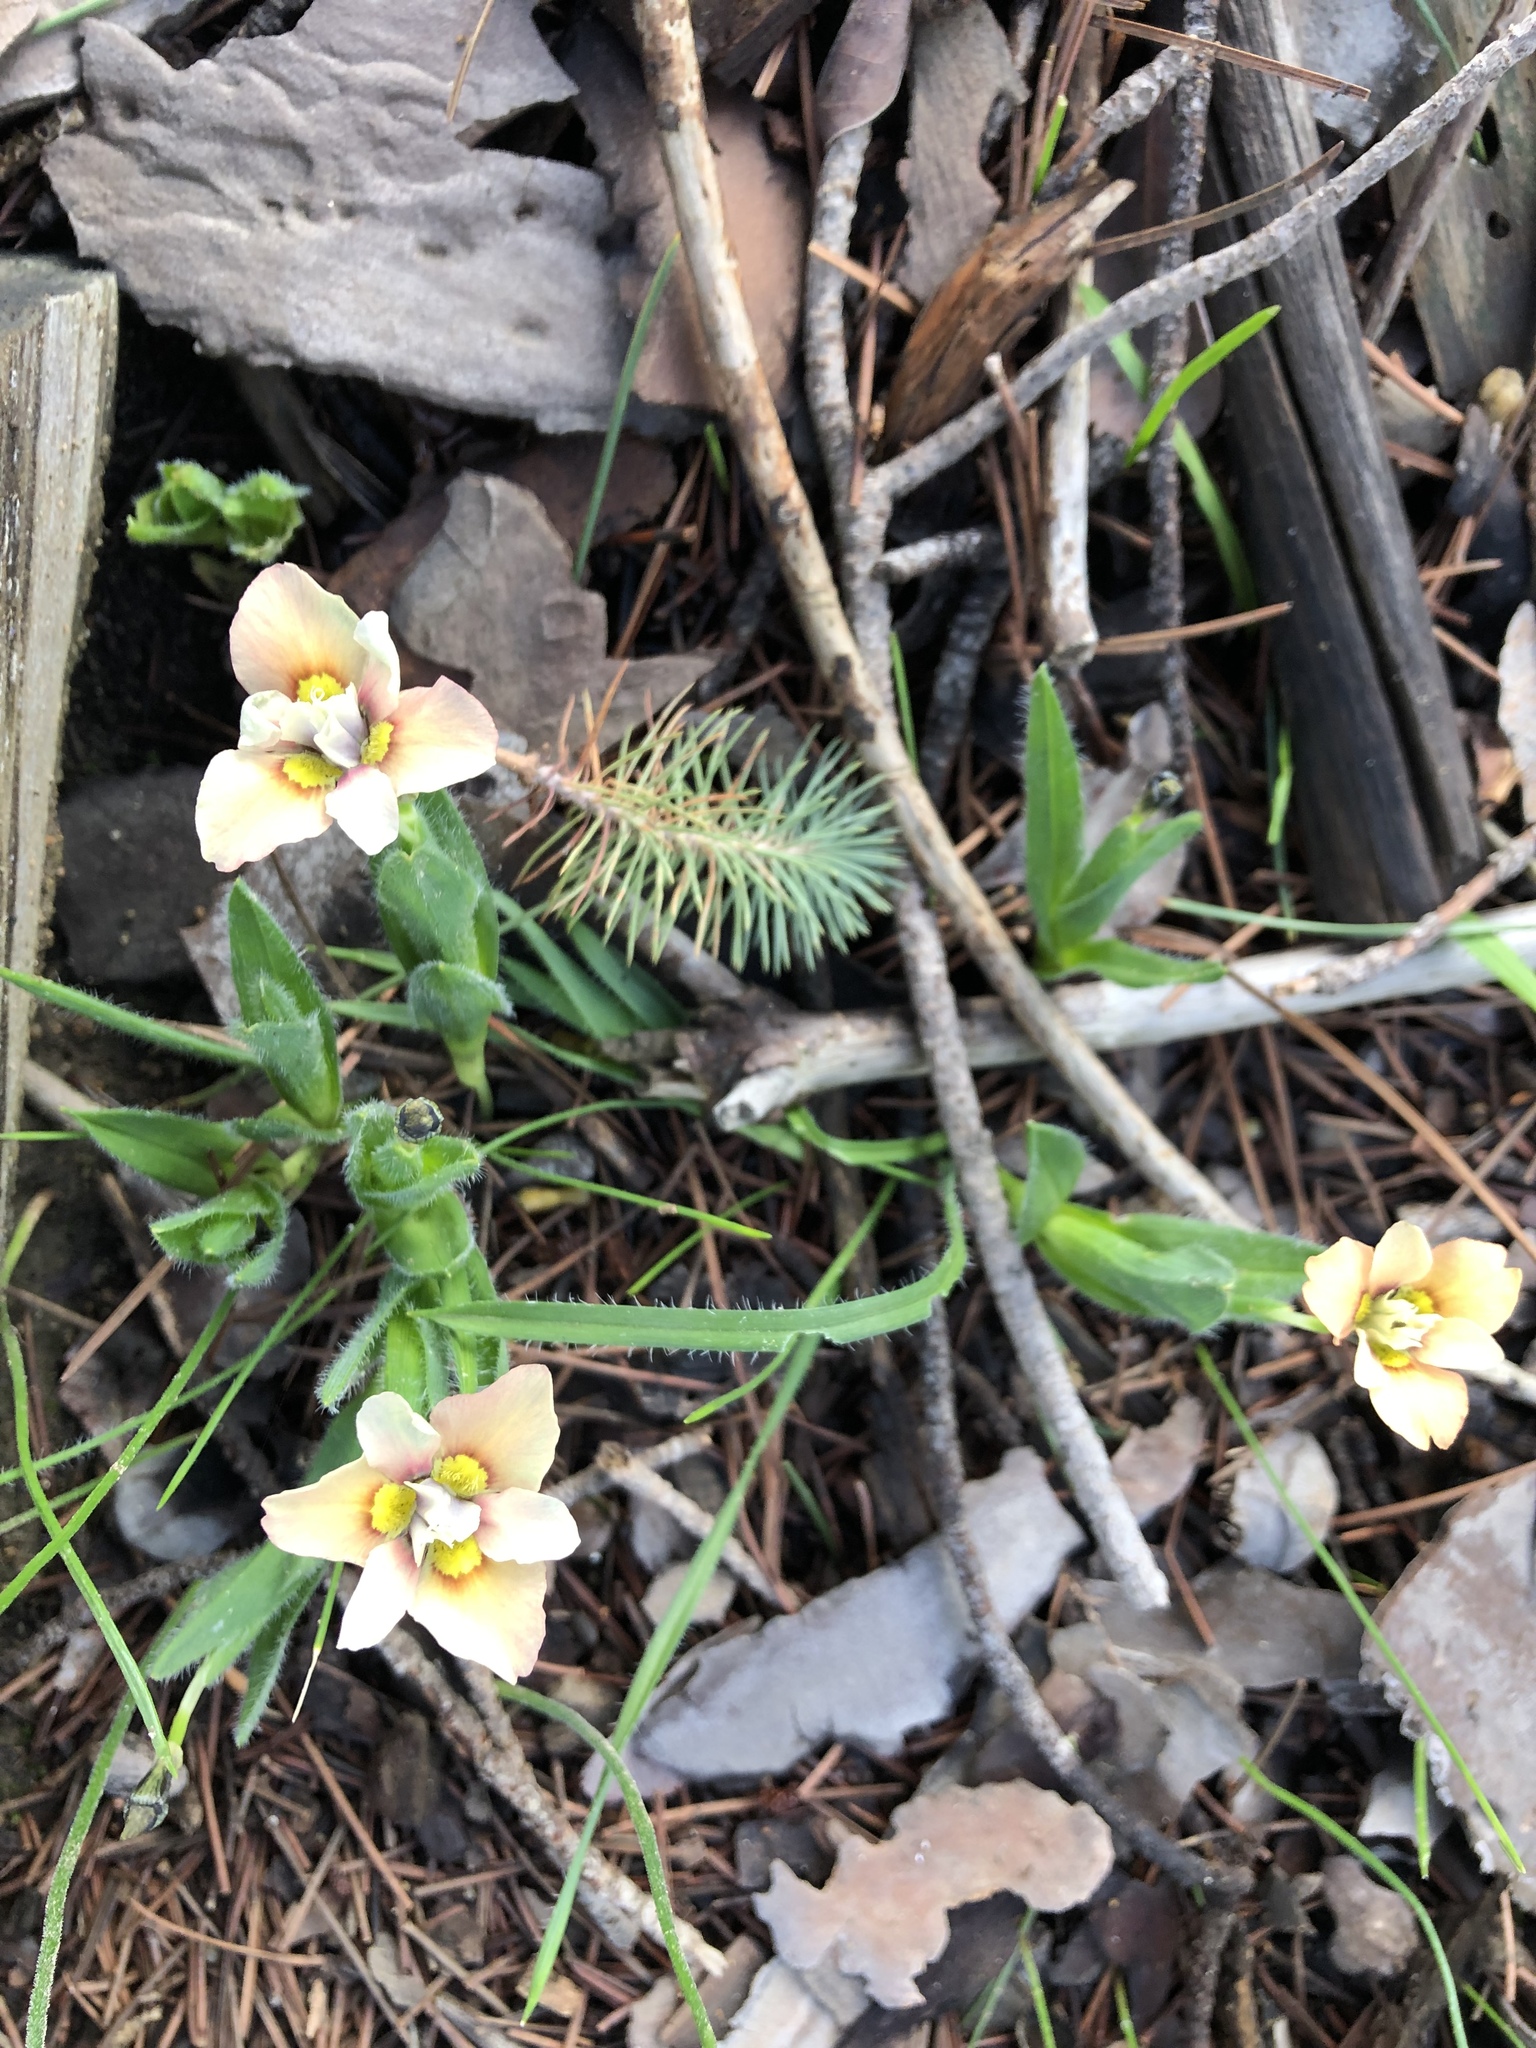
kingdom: Plantae
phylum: Tracheophyta
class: Liliopsida
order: Asparagales
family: Iridaceae
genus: Moraea
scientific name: Moraea tricolor
